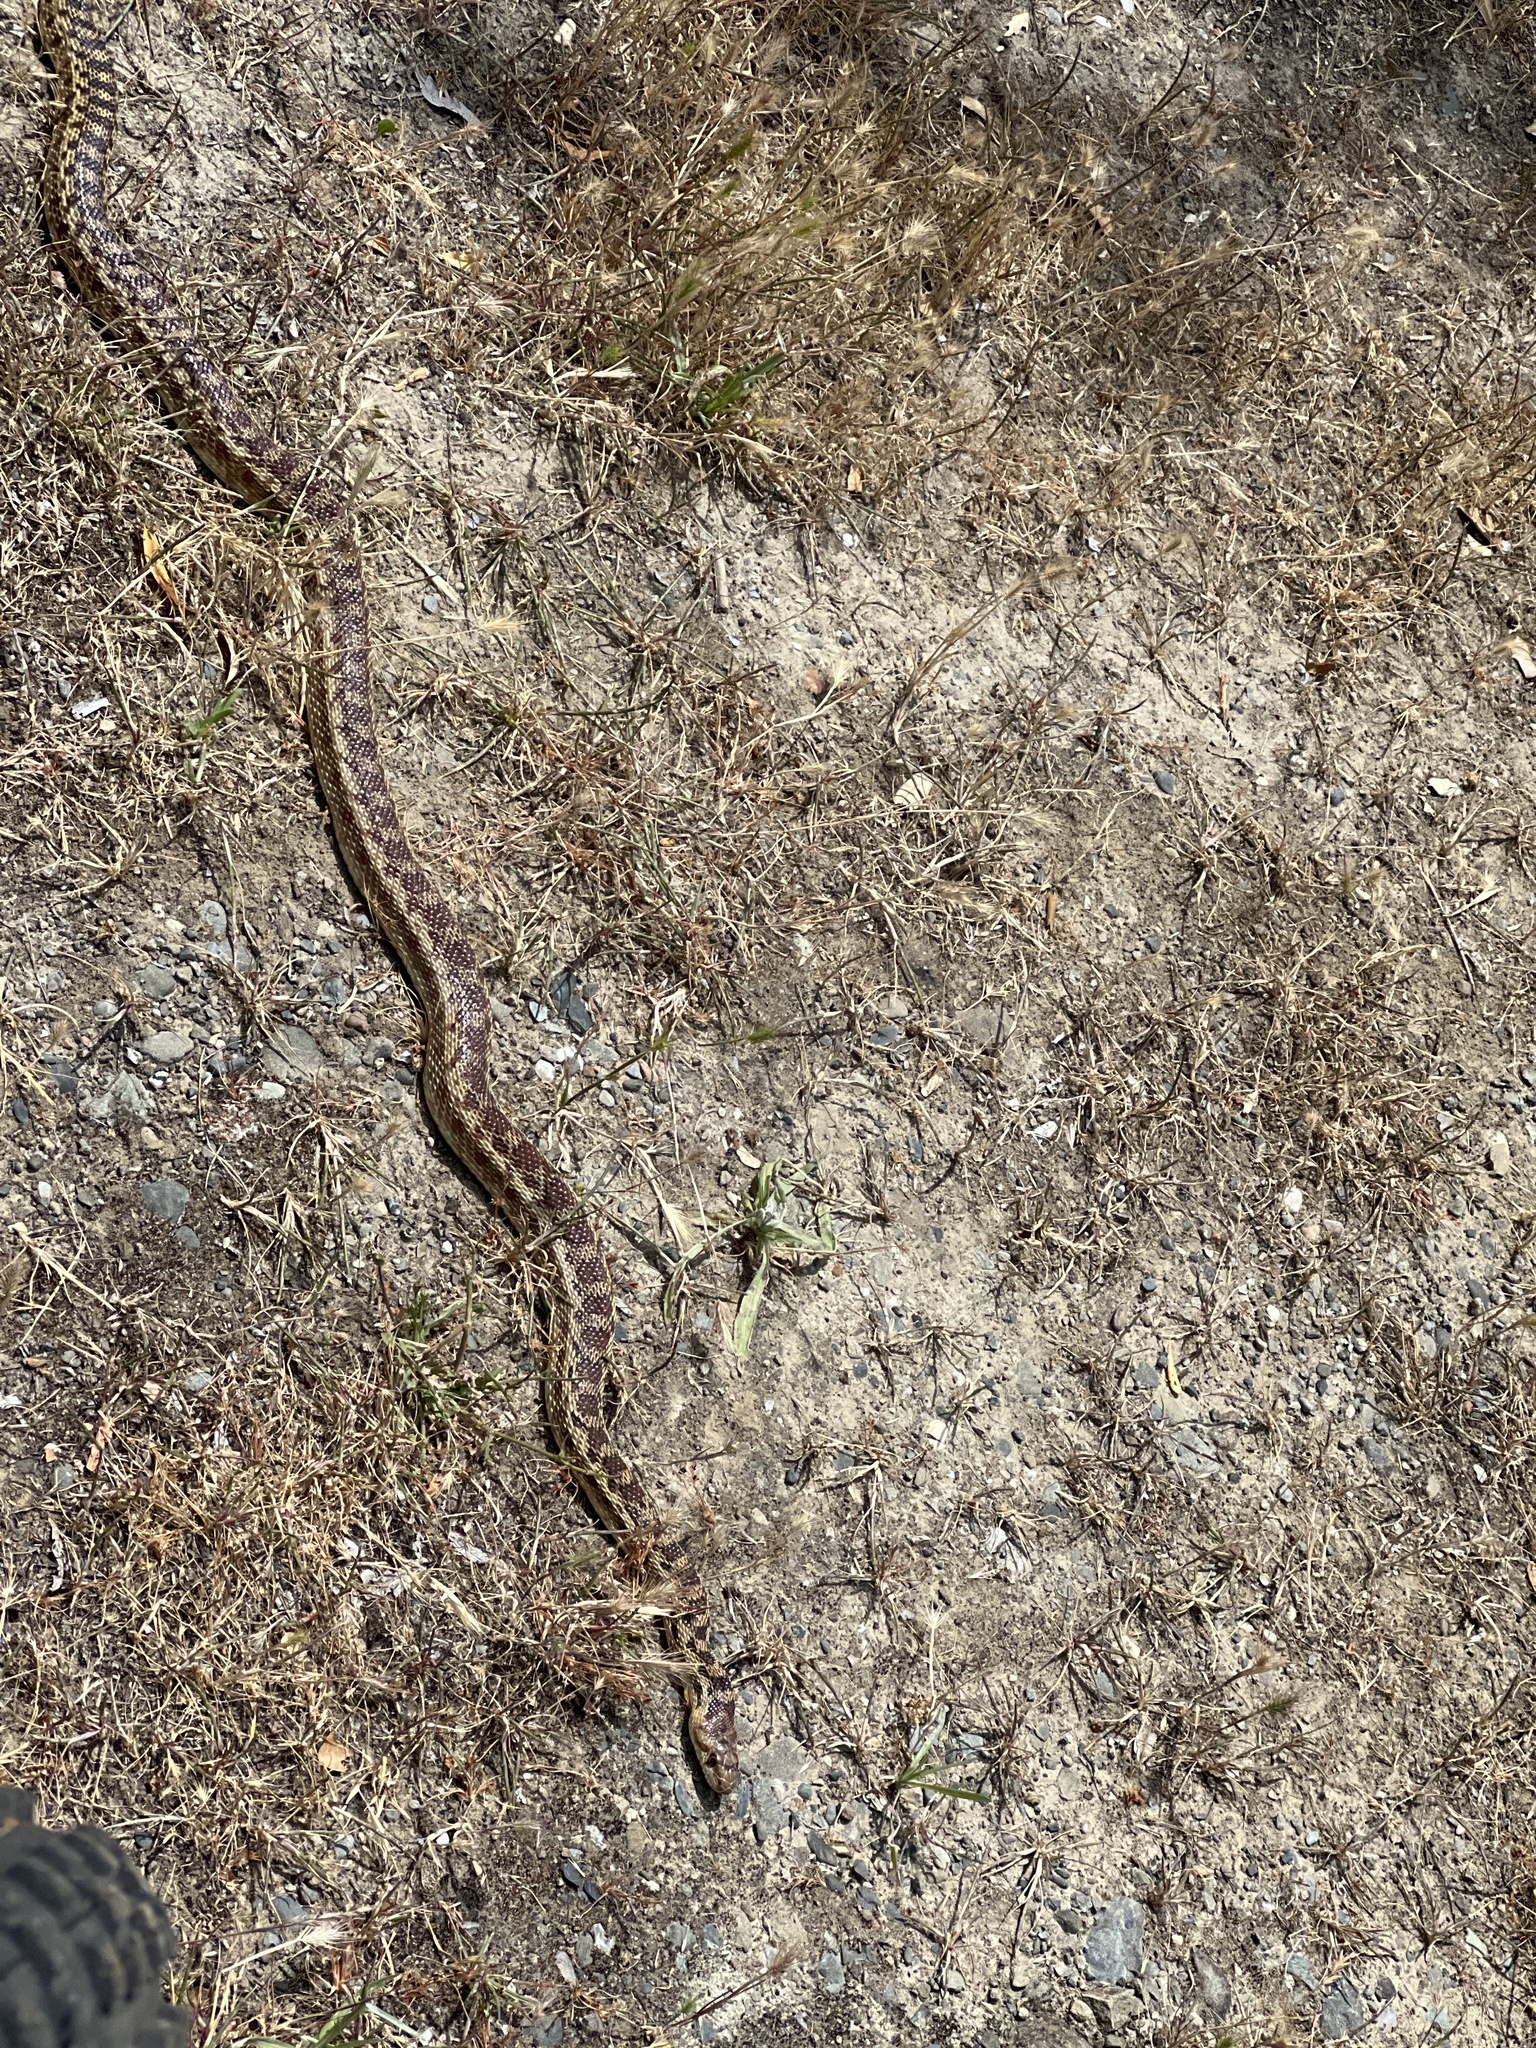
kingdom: Animalia
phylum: Chordata
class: Squamata
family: Colubridae
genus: Pituophis
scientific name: Pituophis catenifer
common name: Gopher snake
